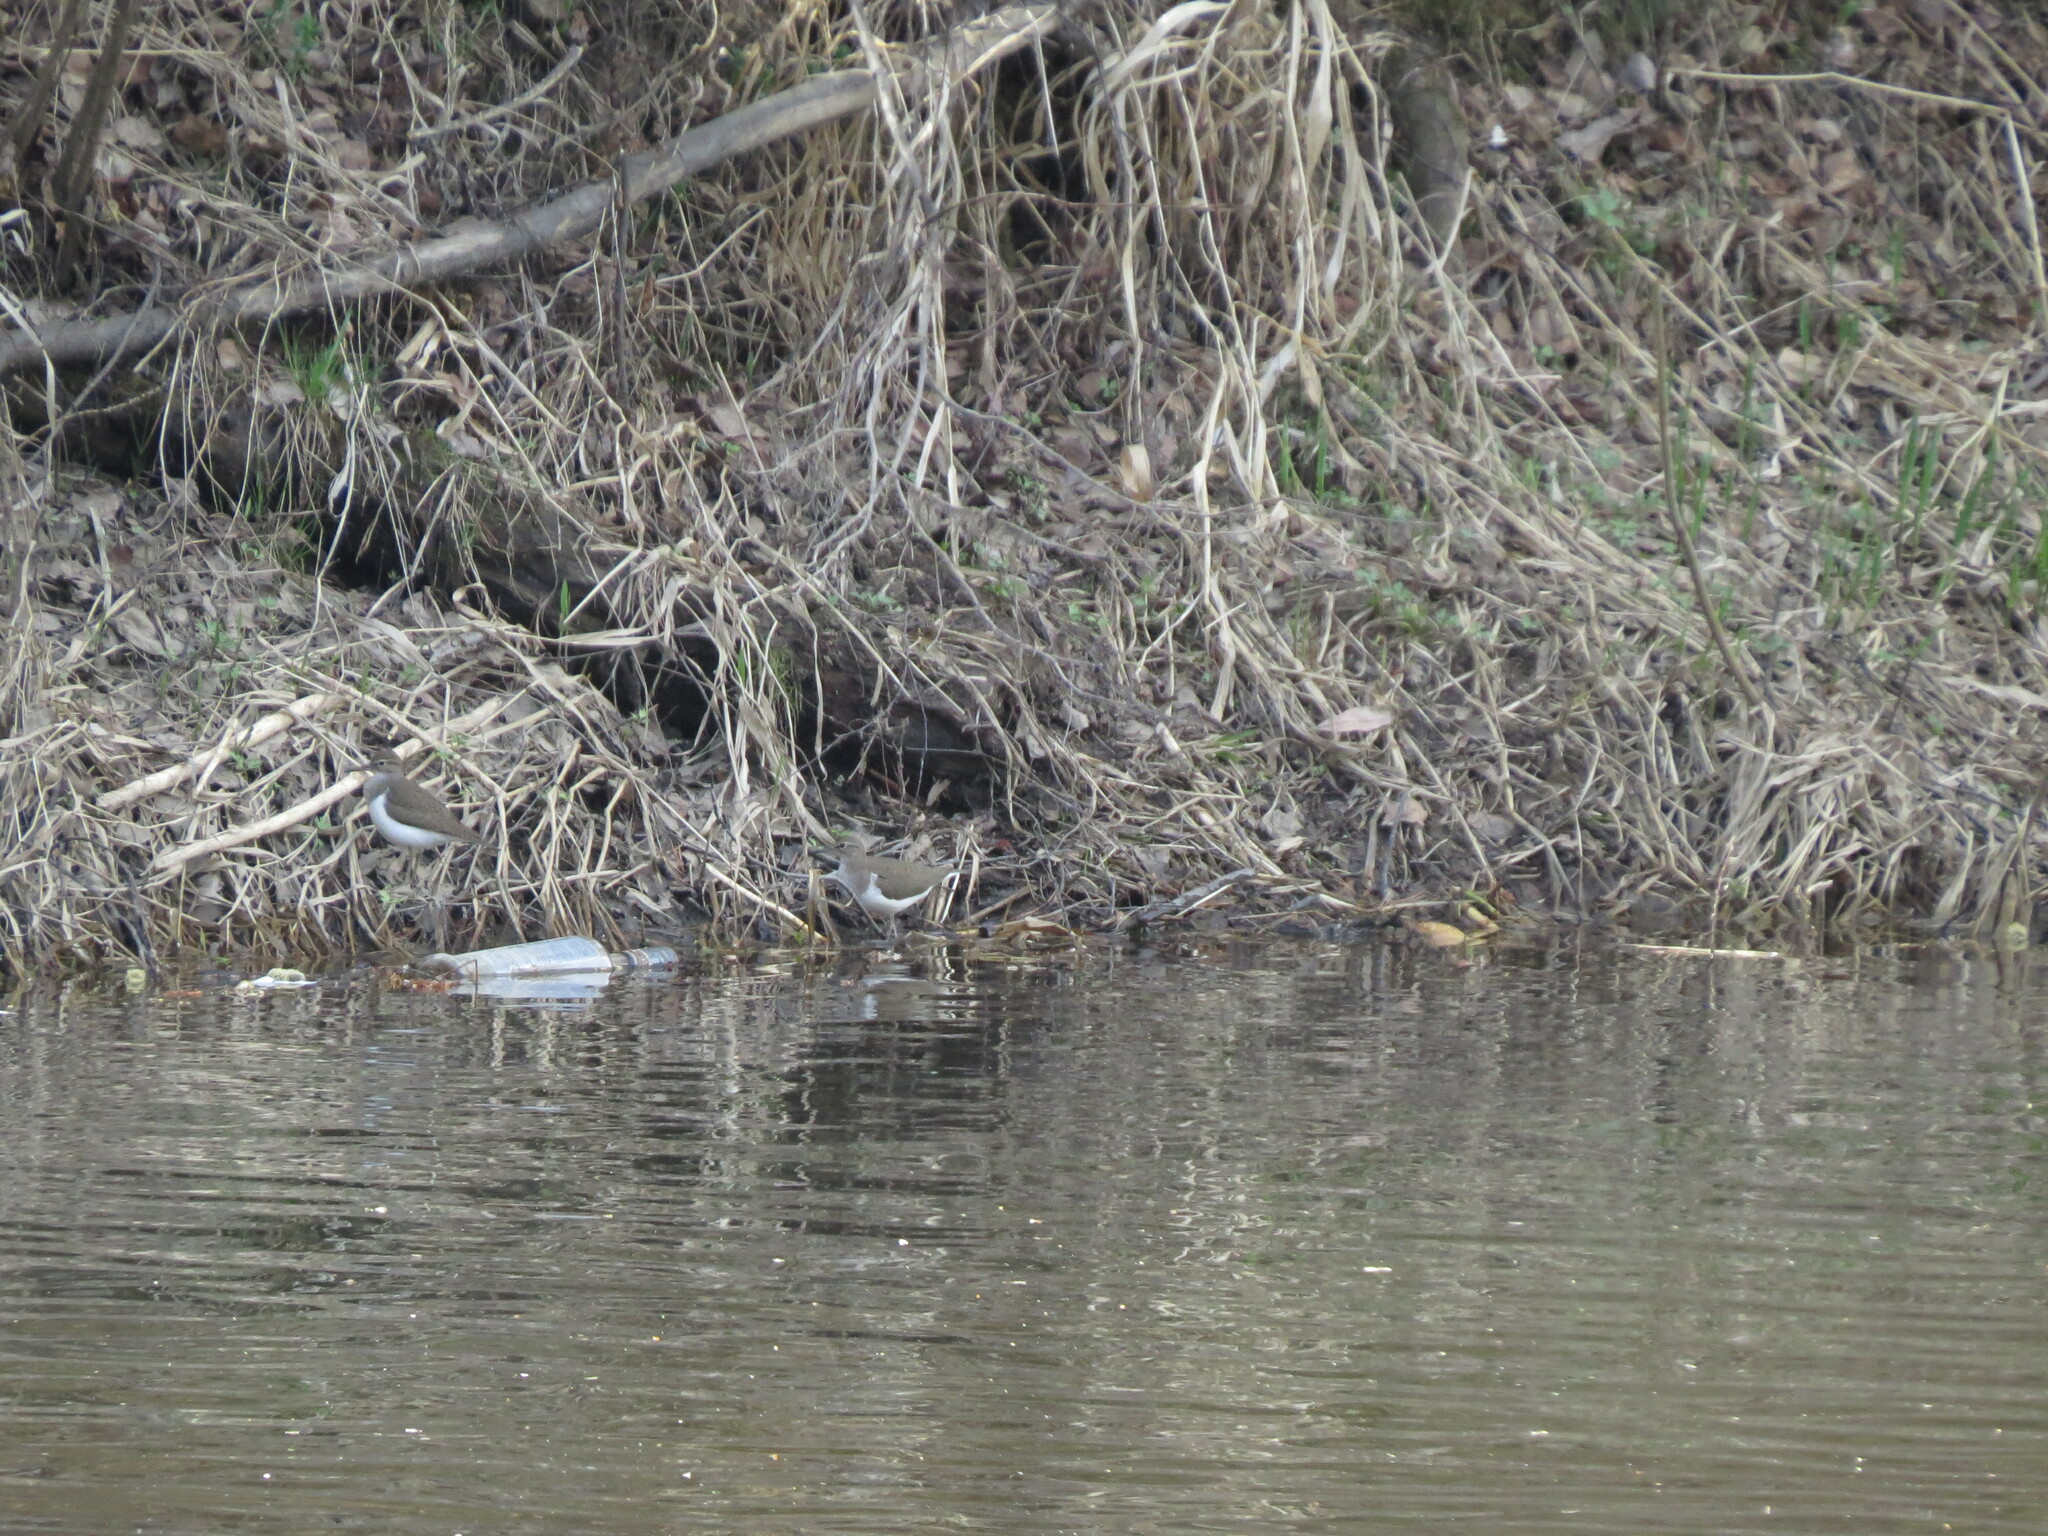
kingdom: Animalia
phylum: Chordata
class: Aves
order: Charadriiformes
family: Scolopacidae
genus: Actitis
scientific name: Actitis hypoleucos
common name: Common sandpiper
